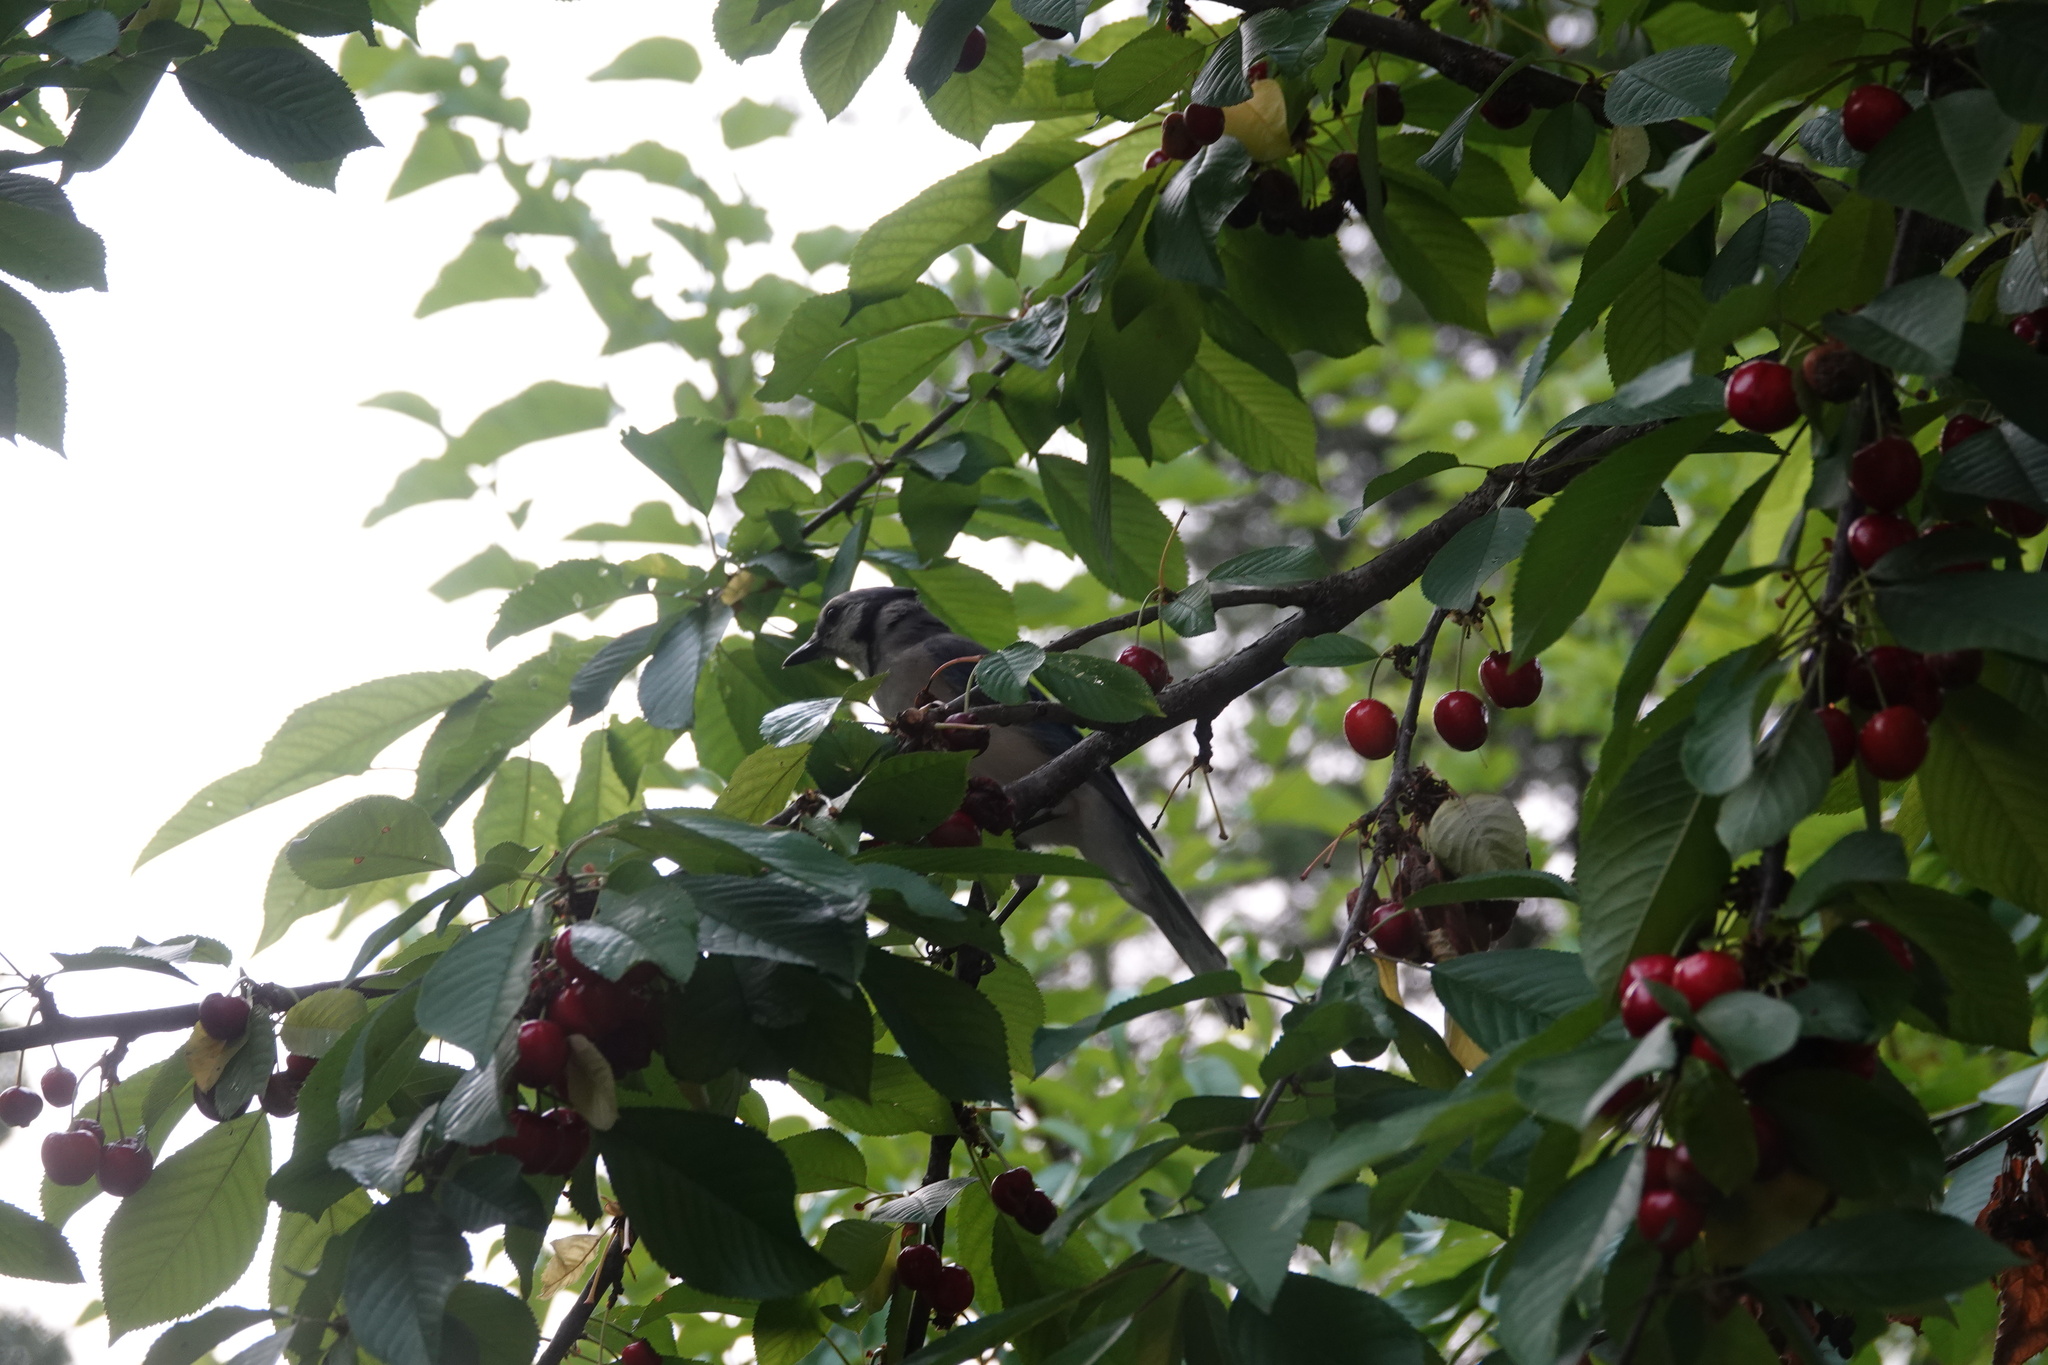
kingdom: Animalia
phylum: Chordata
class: Aves
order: Passeriformes
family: Corvidae
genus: Cyanocitta
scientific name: Cyanocitta cristata
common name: Blue jay
